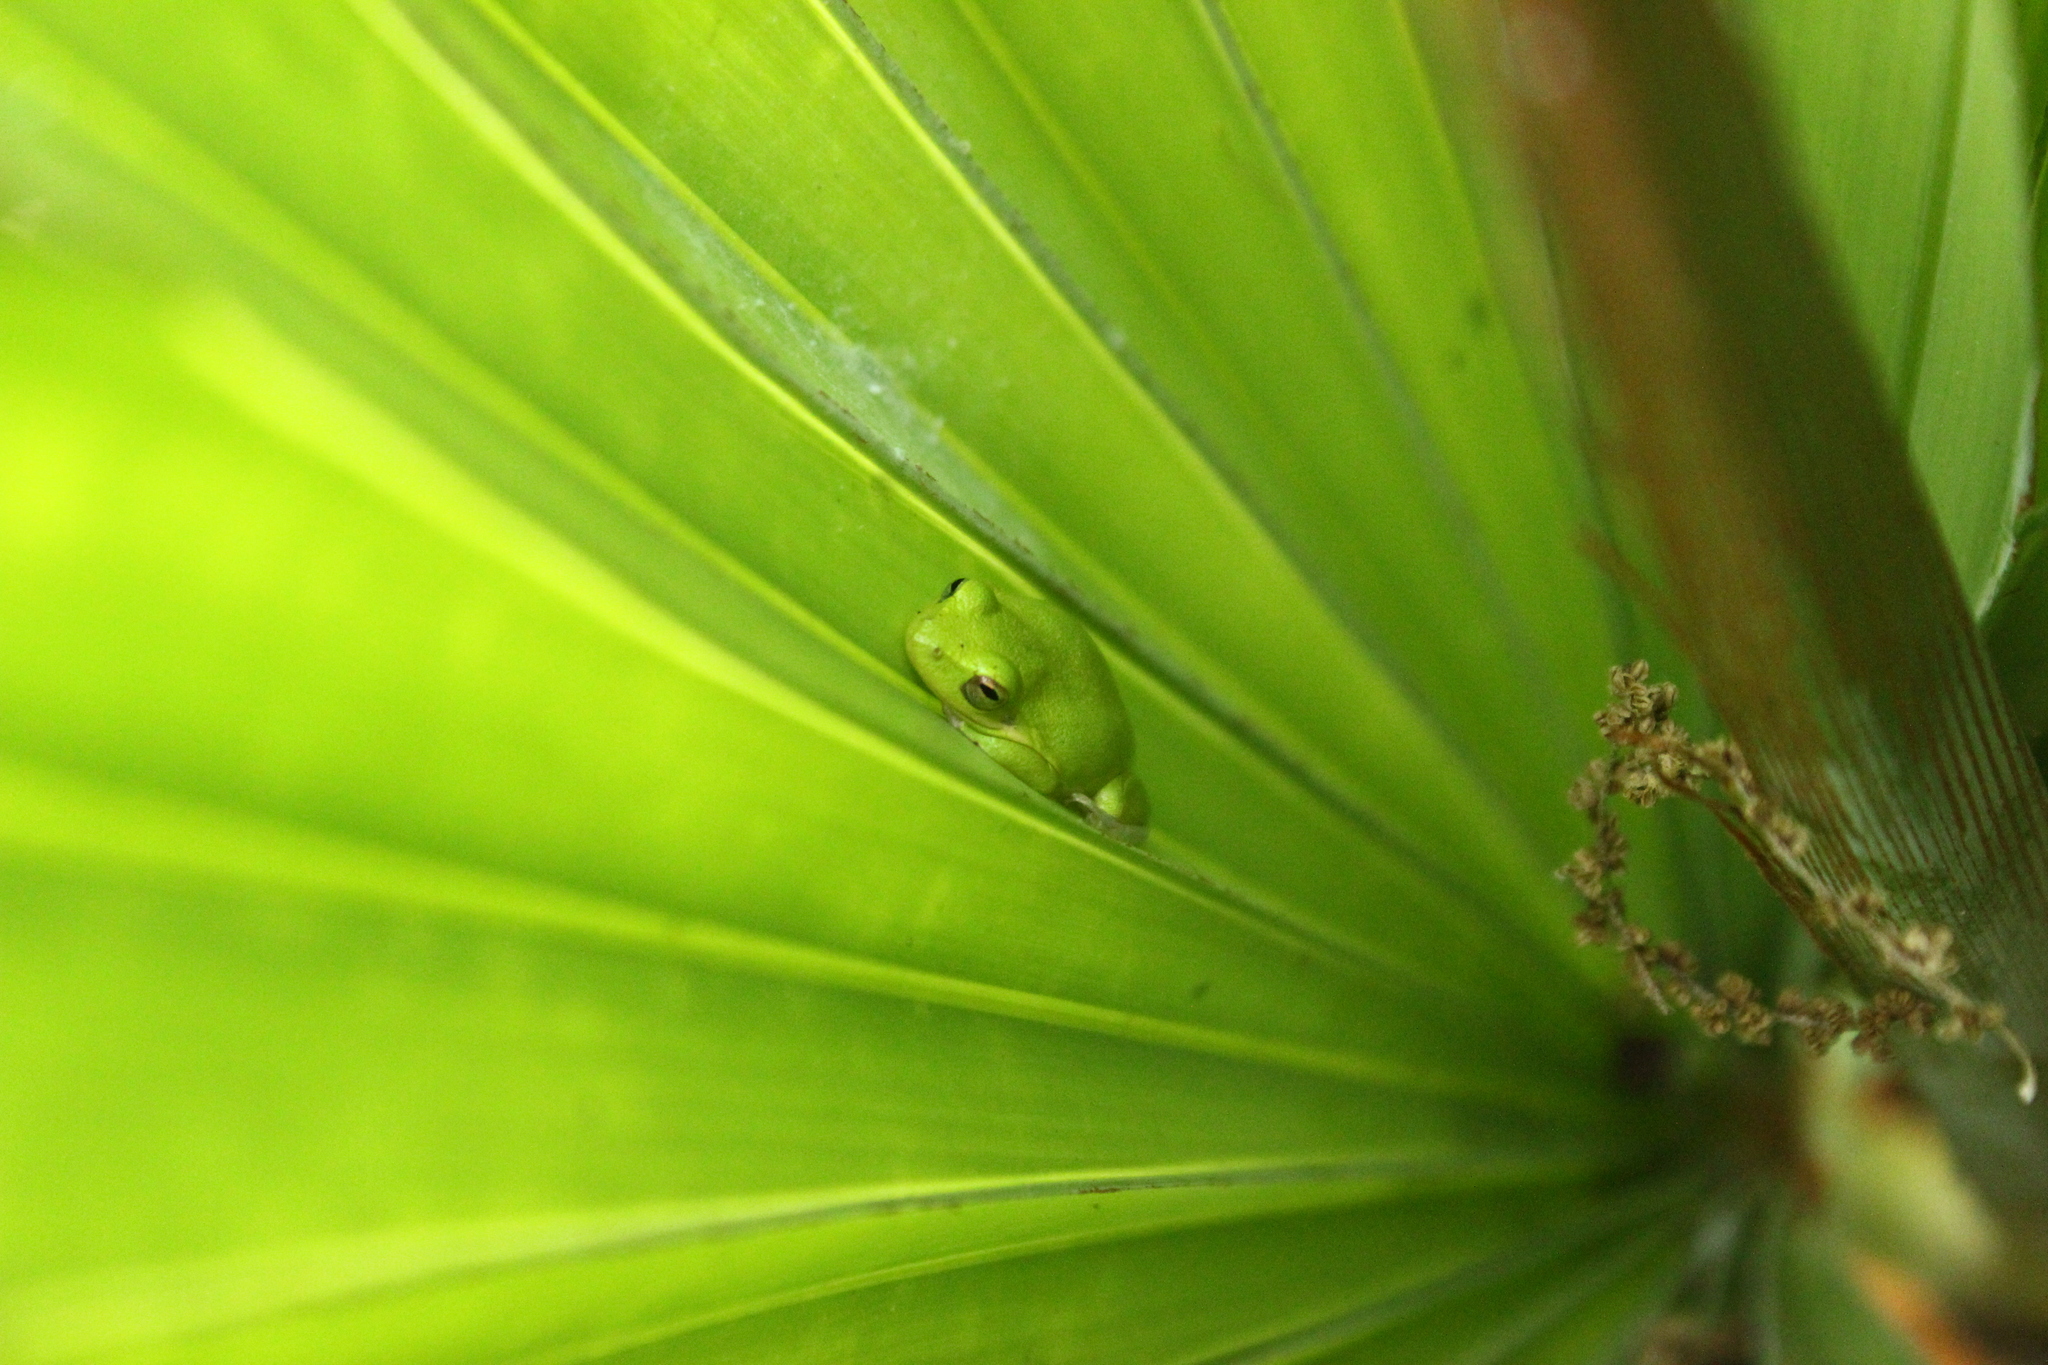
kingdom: Animalia
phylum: Chordata
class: Amphibia
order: Anura
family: Hylidae
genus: Dryophytes
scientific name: Dryophytes squirellus
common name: Squirrel treefrog
